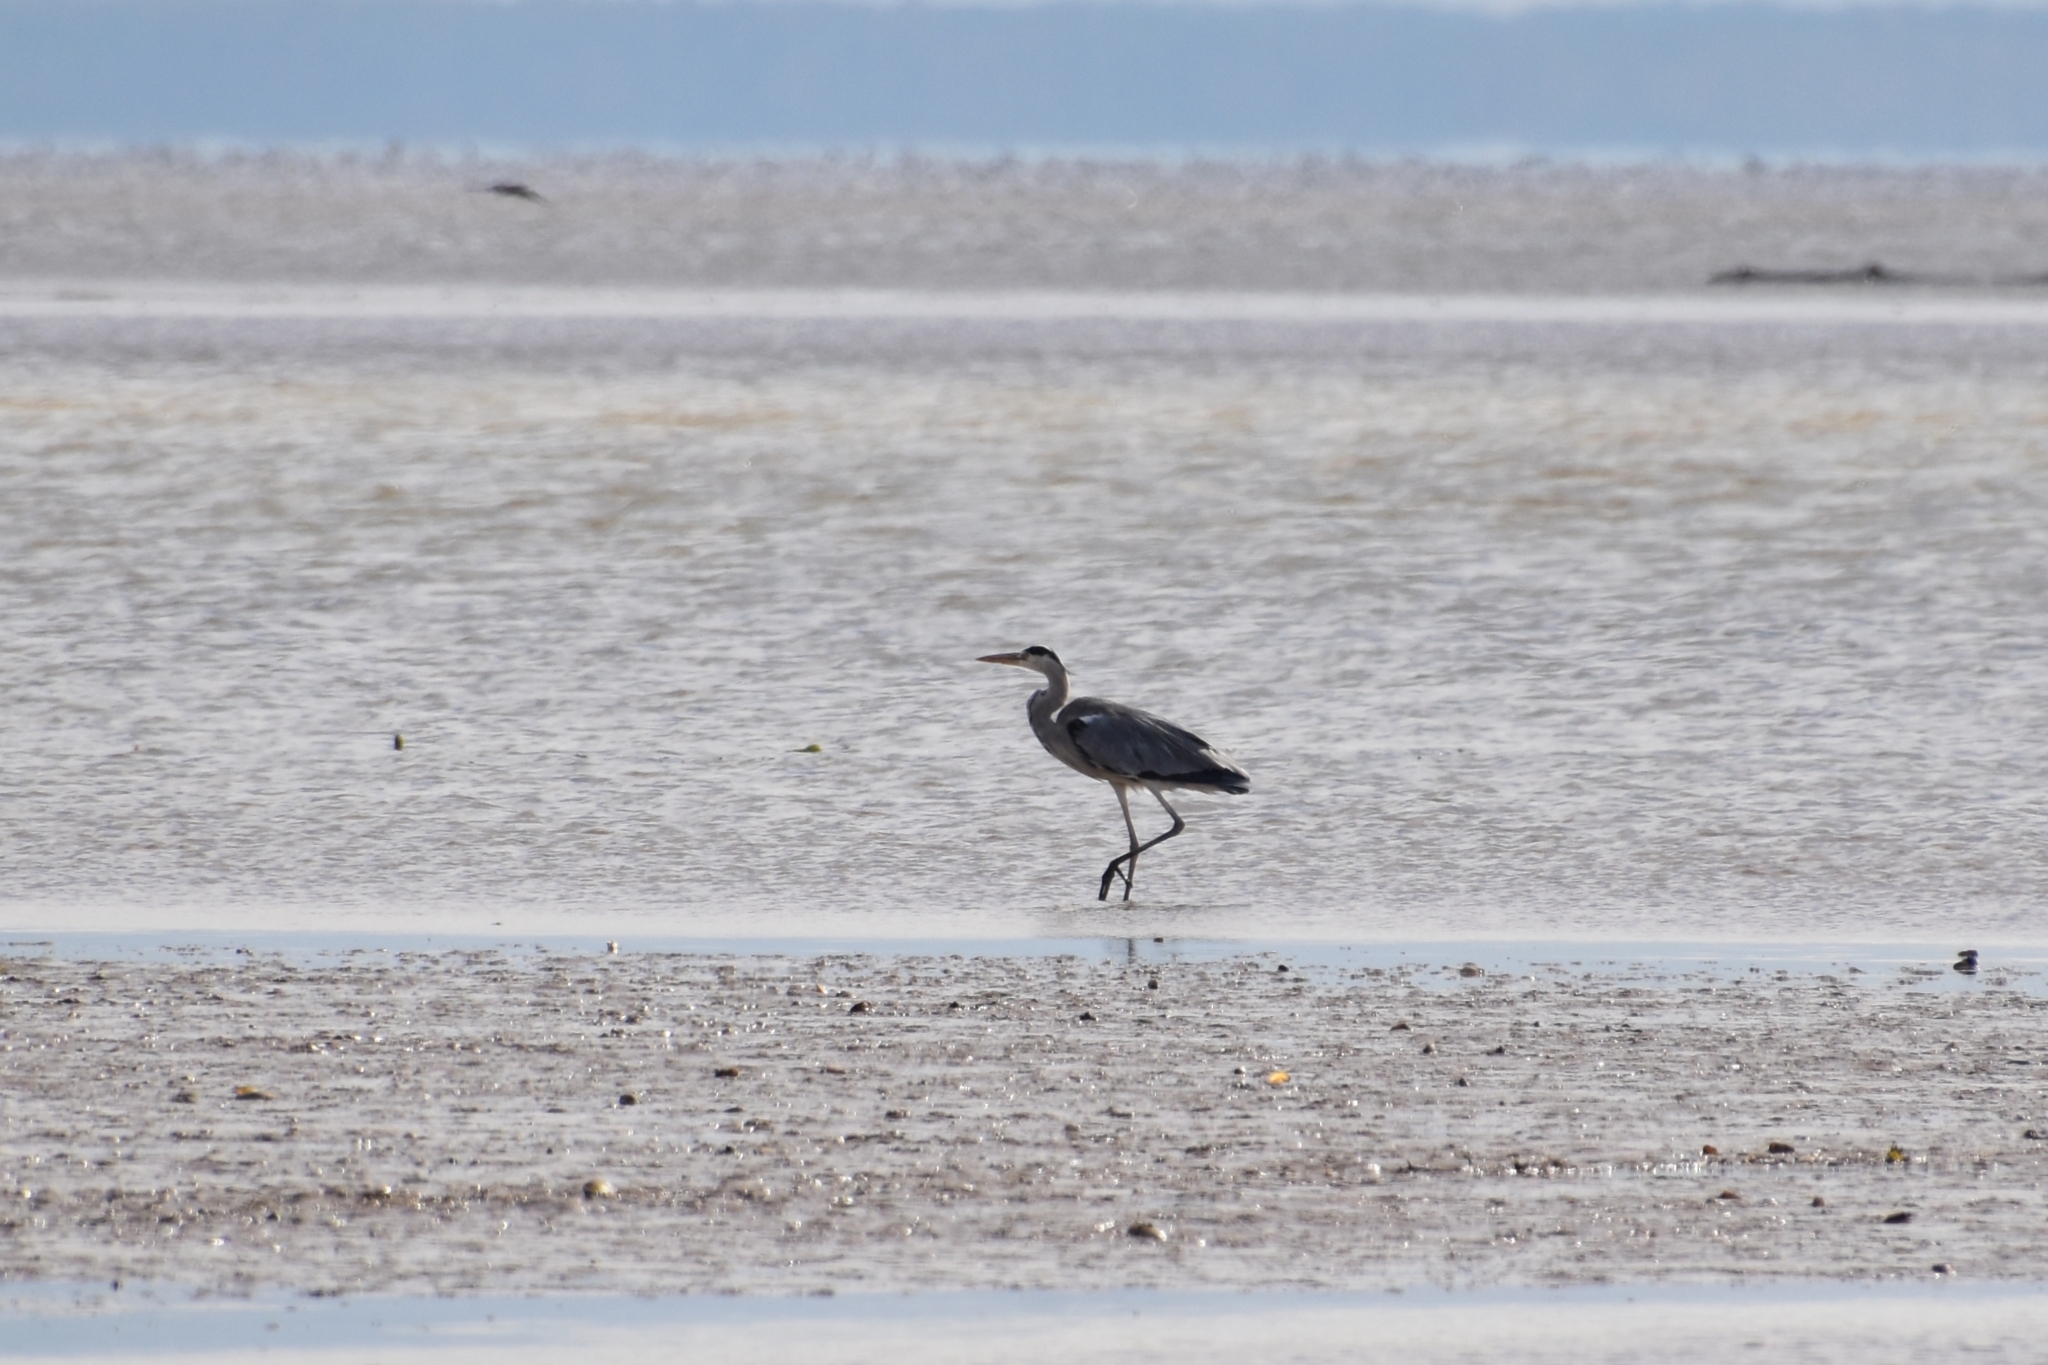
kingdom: Animalia
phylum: Chordata
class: Aves
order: Pelecaniformes
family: Ardeidae
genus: Ardea
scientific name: Ardea cinerea
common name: Grey heron
